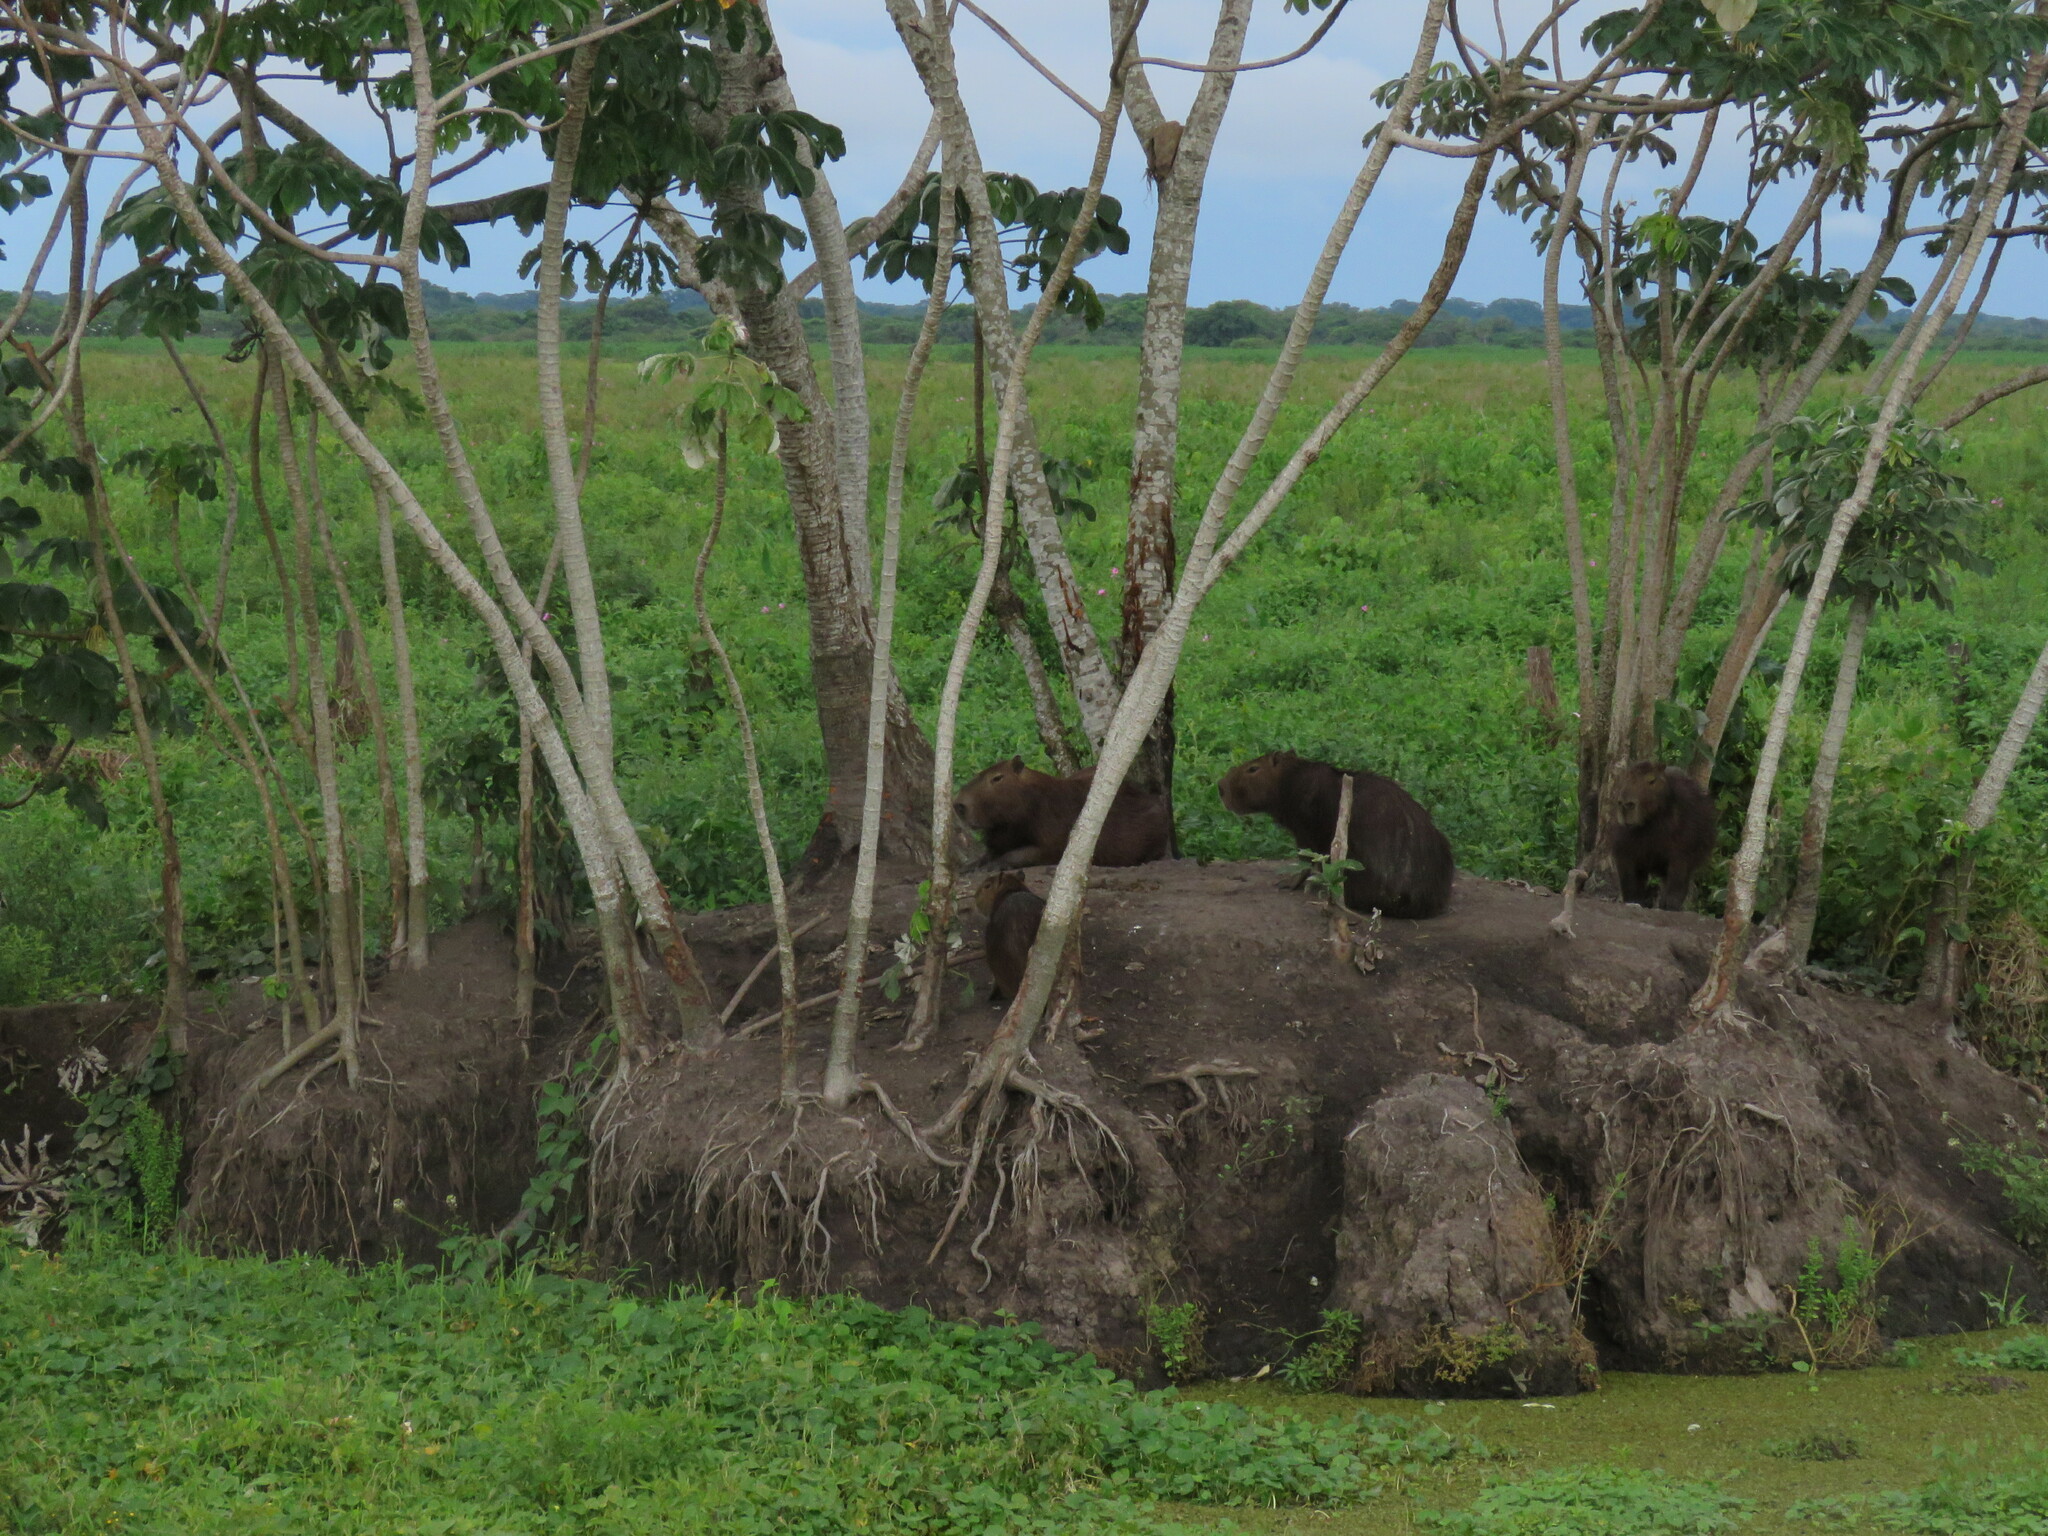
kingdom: Animalia
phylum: Chordata
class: Mammalia
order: Rodentia
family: Caviidae
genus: Hydrochoerus
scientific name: Hydrochoerus hydrochaeris
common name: Capybara
